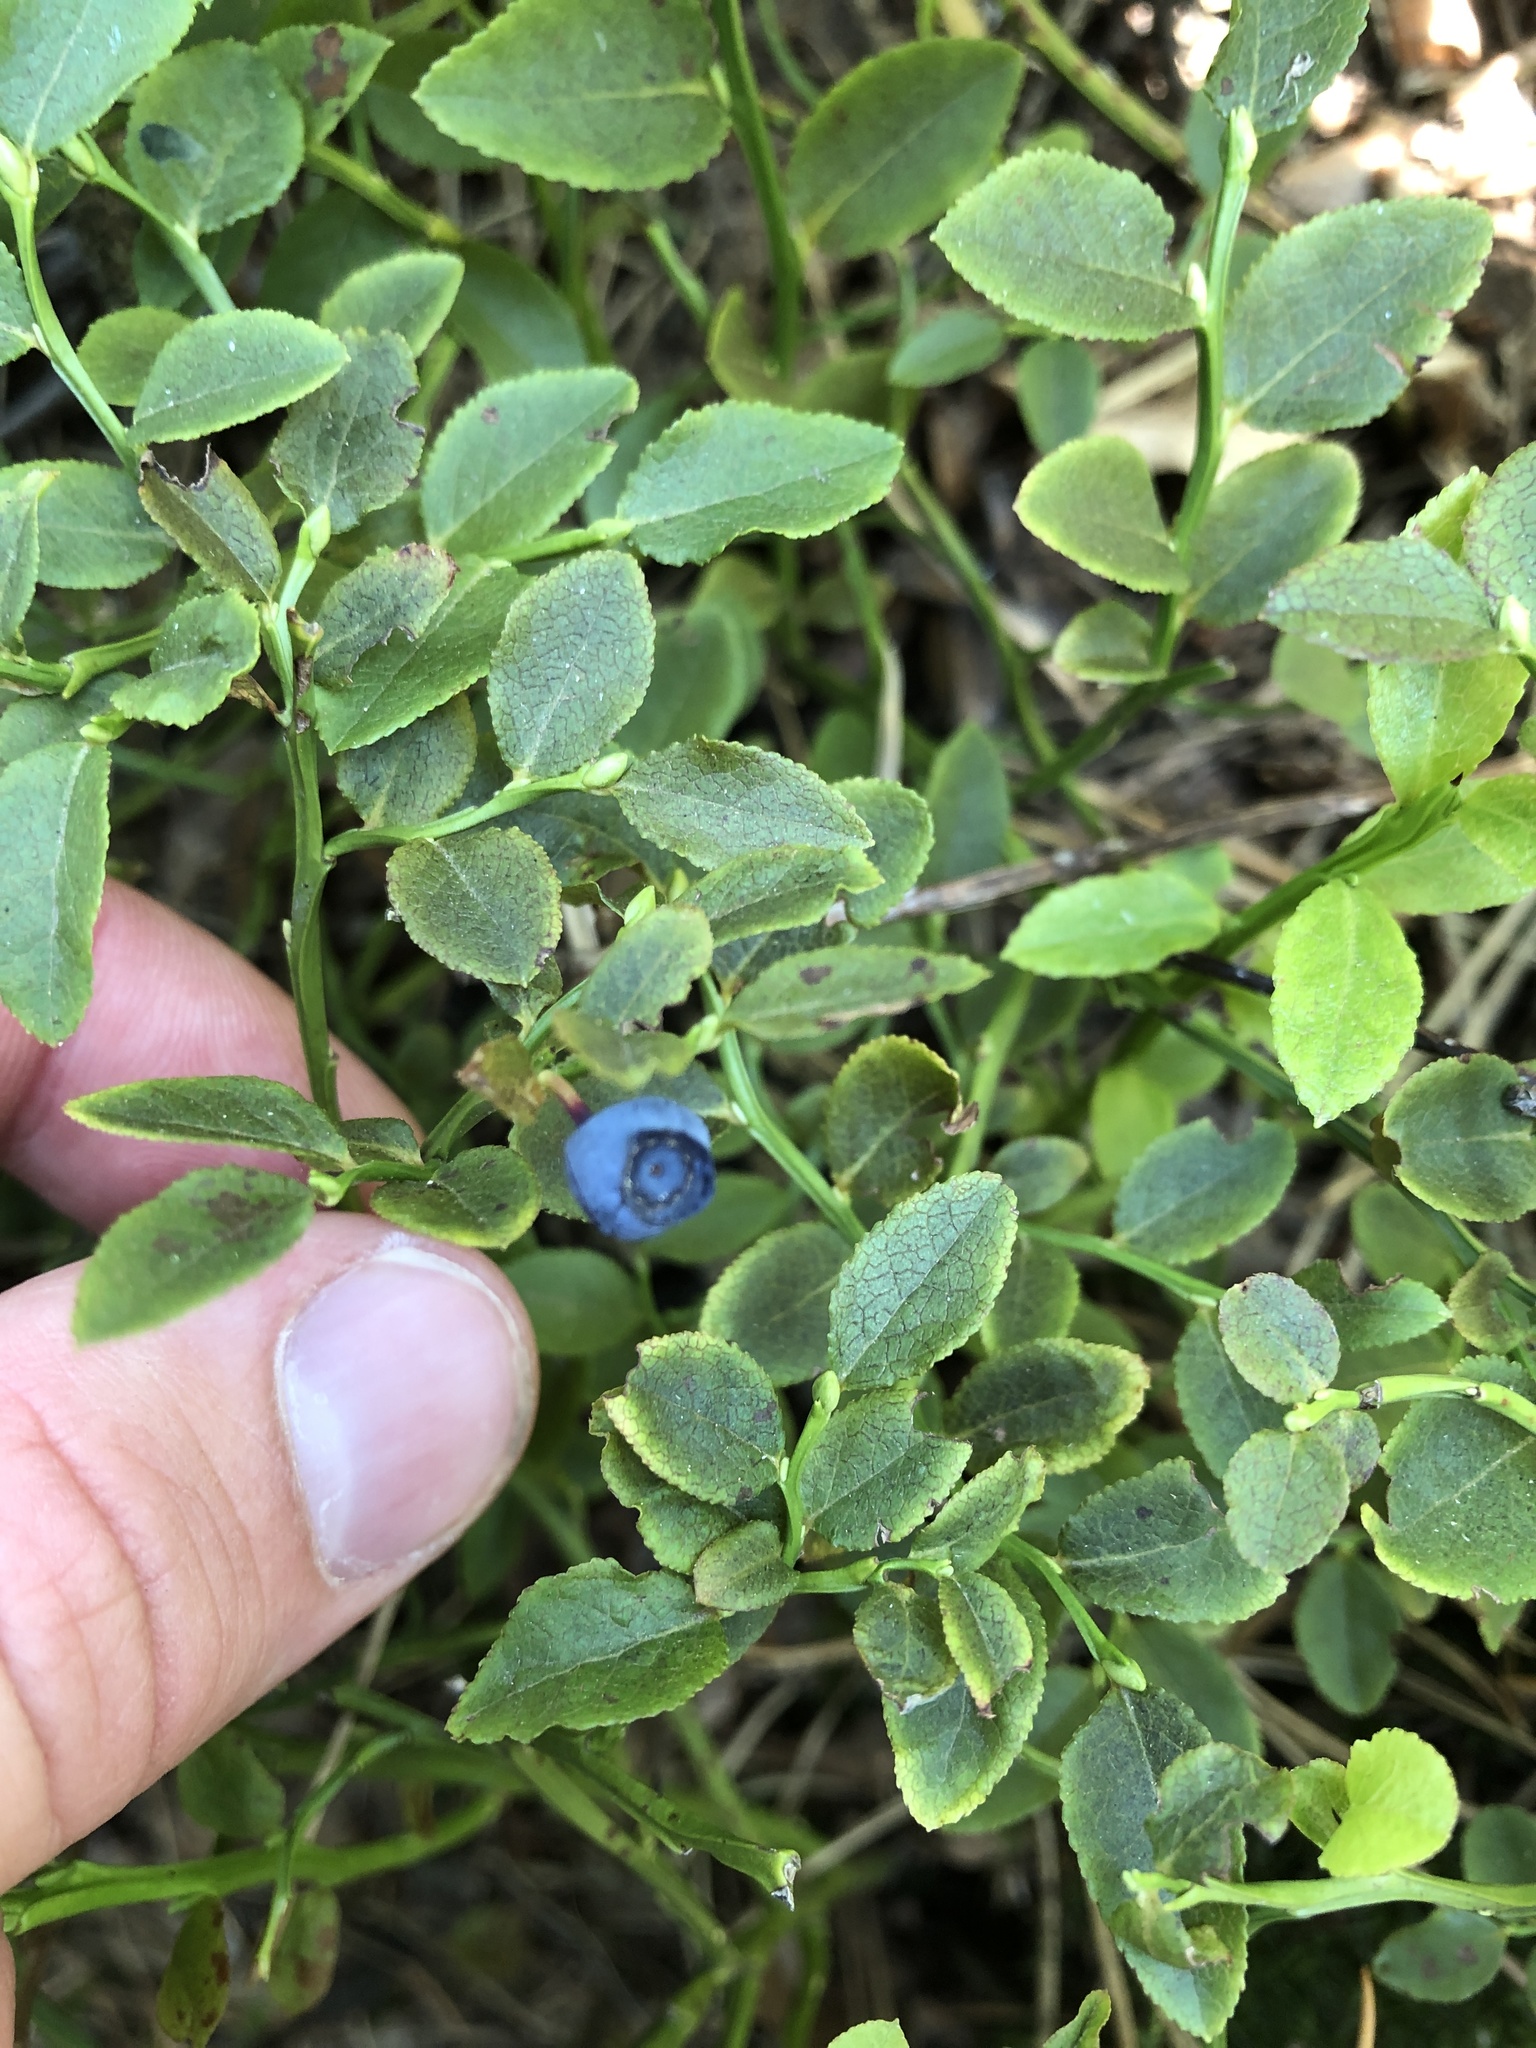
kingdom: Plantae
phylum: Tracheophyta
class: Magnoliopsida
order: Ericales
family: Ericaceae
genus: Vaccinium
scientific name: Vaccinium myrtillus
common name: Bilberry
